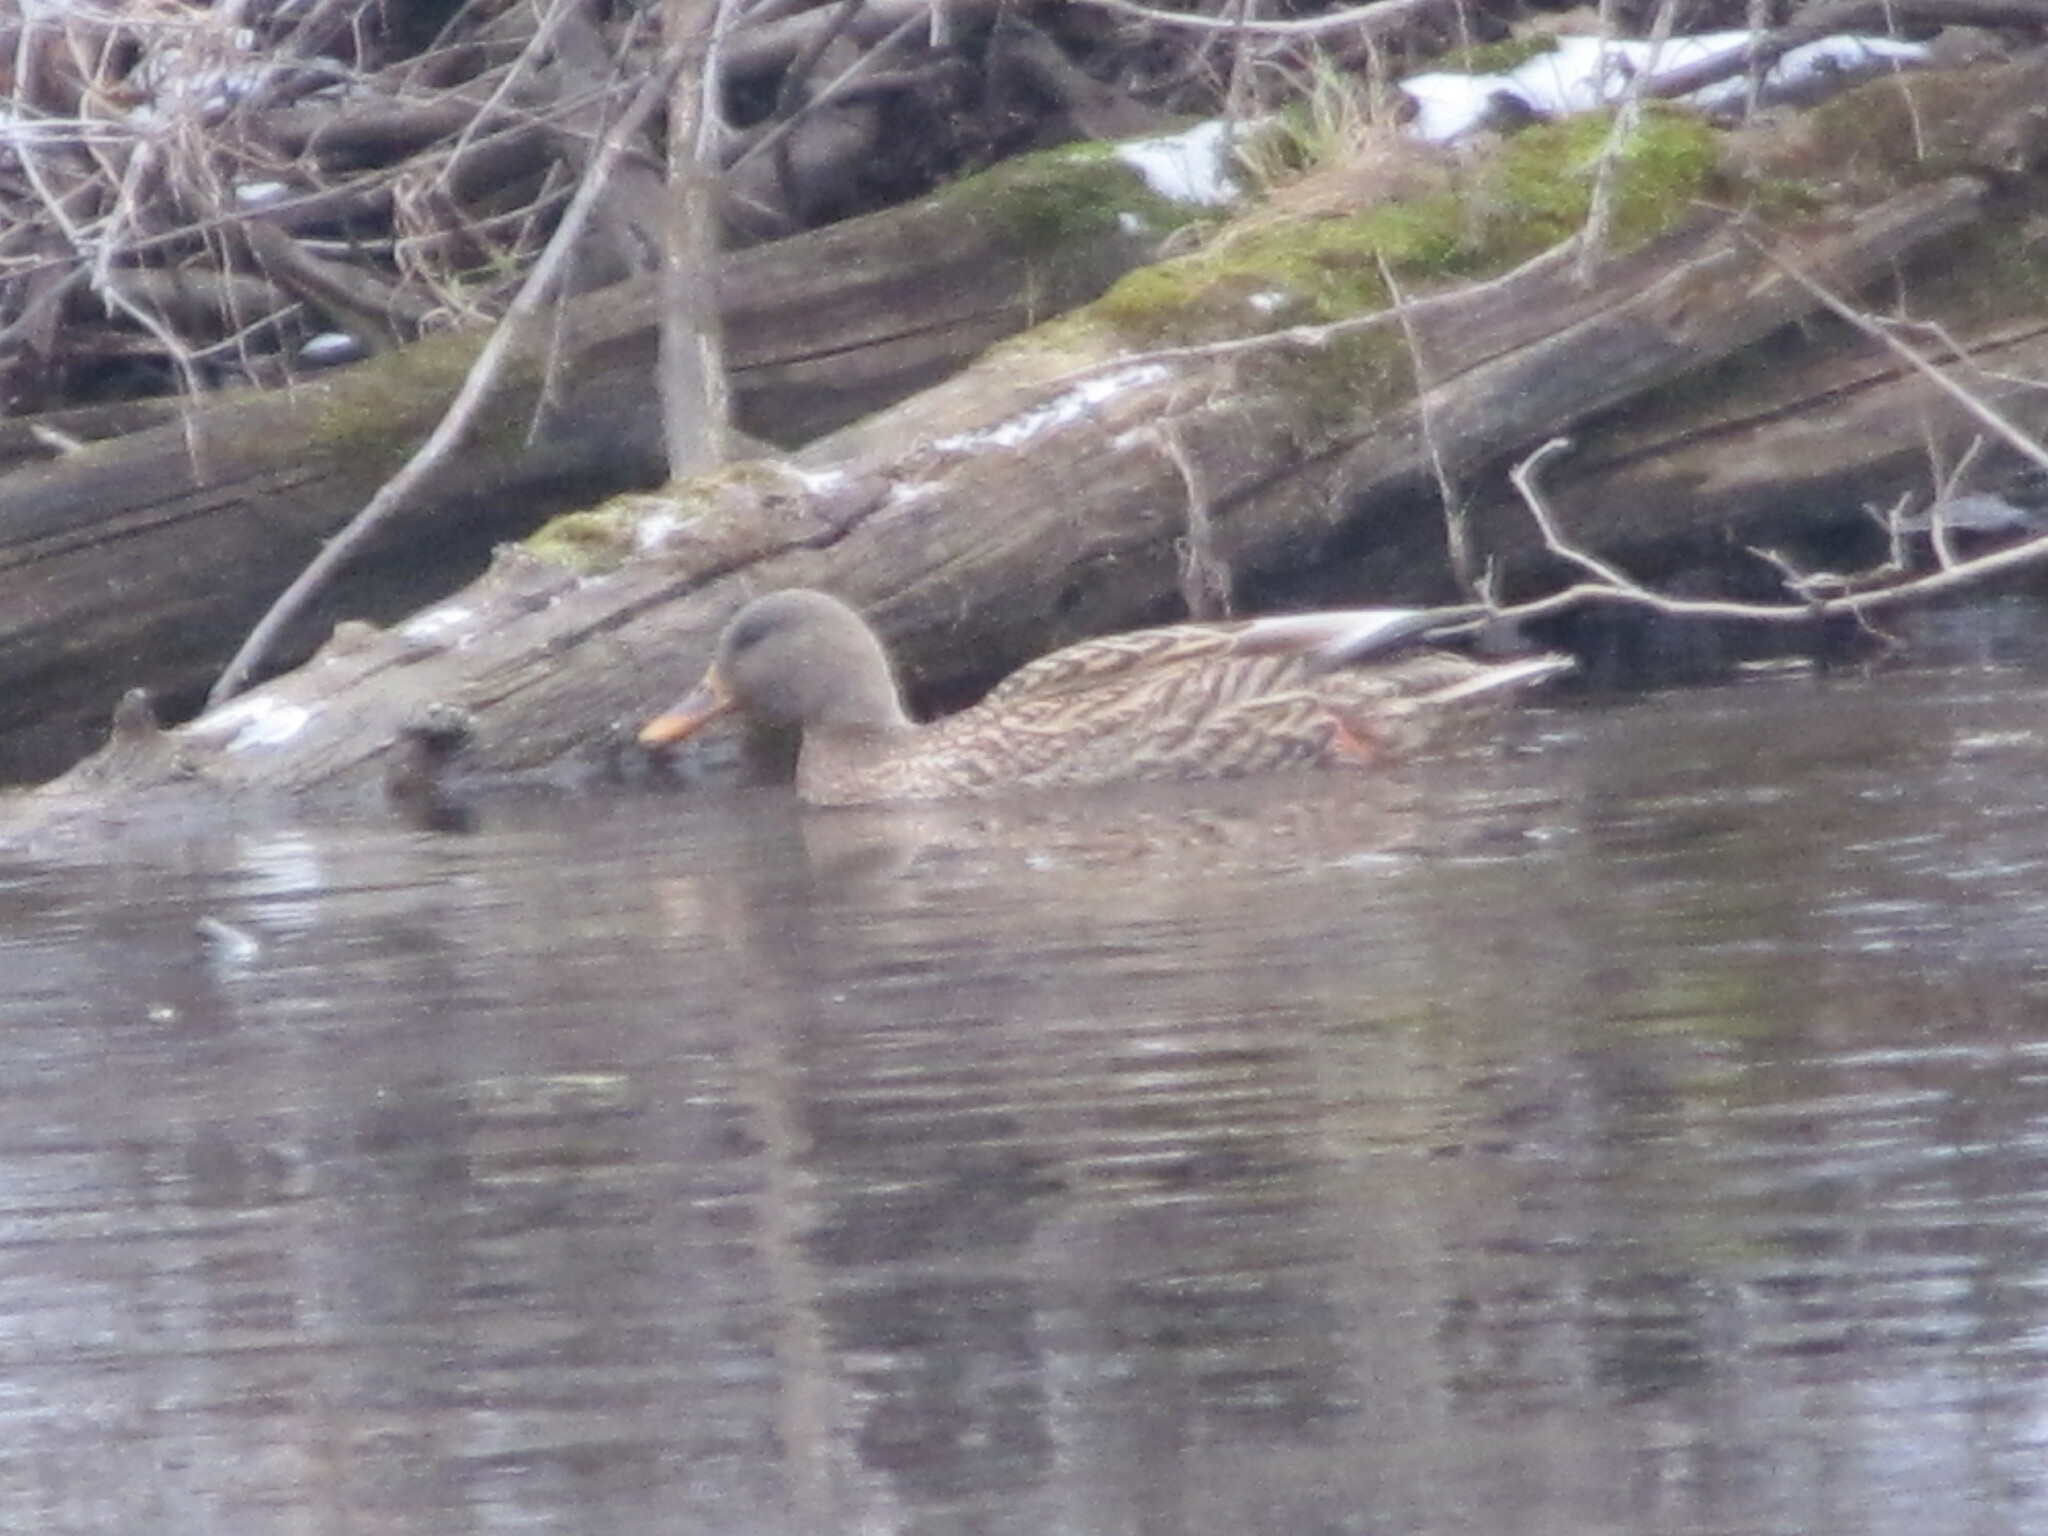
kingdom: Animalia
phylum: Chordata
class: Aves
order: Anseriformes
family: Anatidae
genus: Anas
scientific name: Anas platyrhynchos
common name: Mallard
